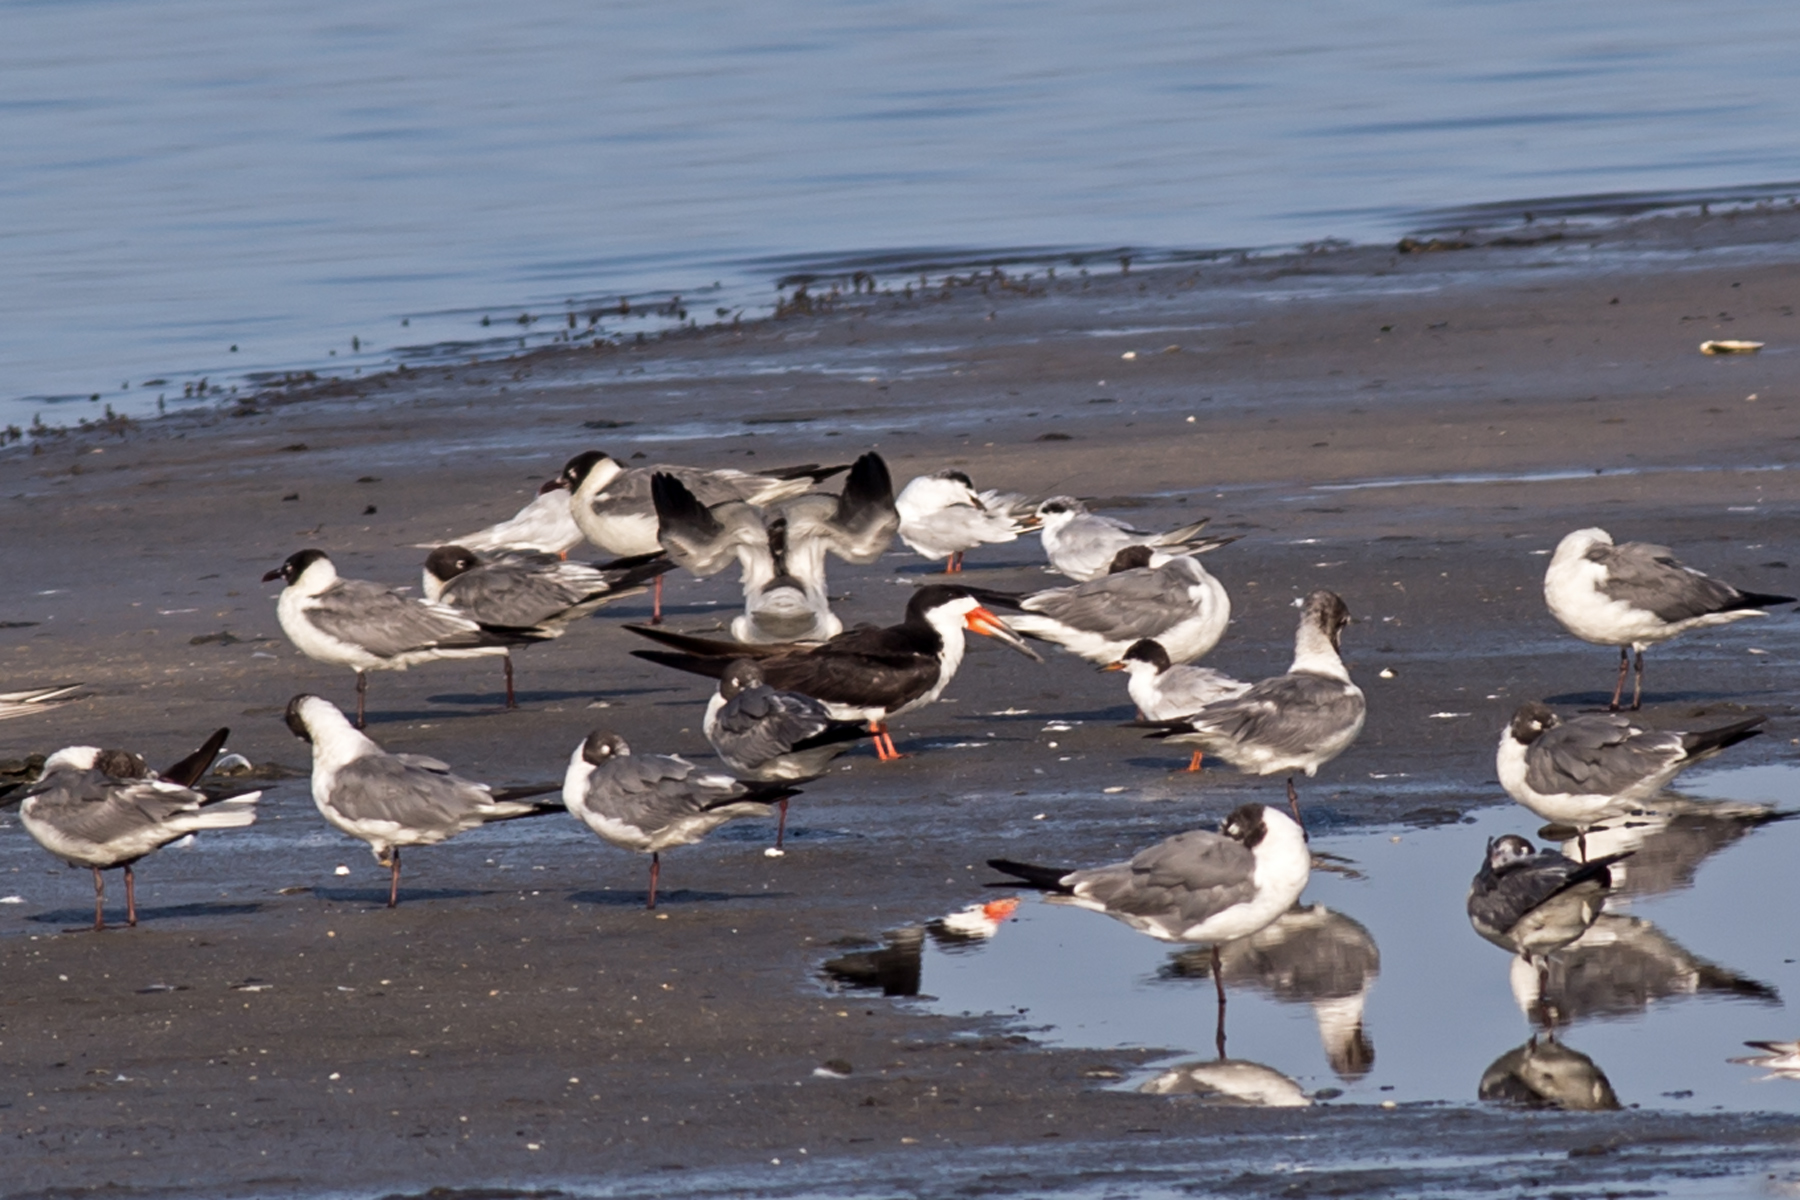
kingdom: Animalia
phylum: Chordata
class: Aves
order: Charadriiformes
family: Laridae
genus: Rynchops
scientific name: Rynchops niger
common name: Black skimmer
